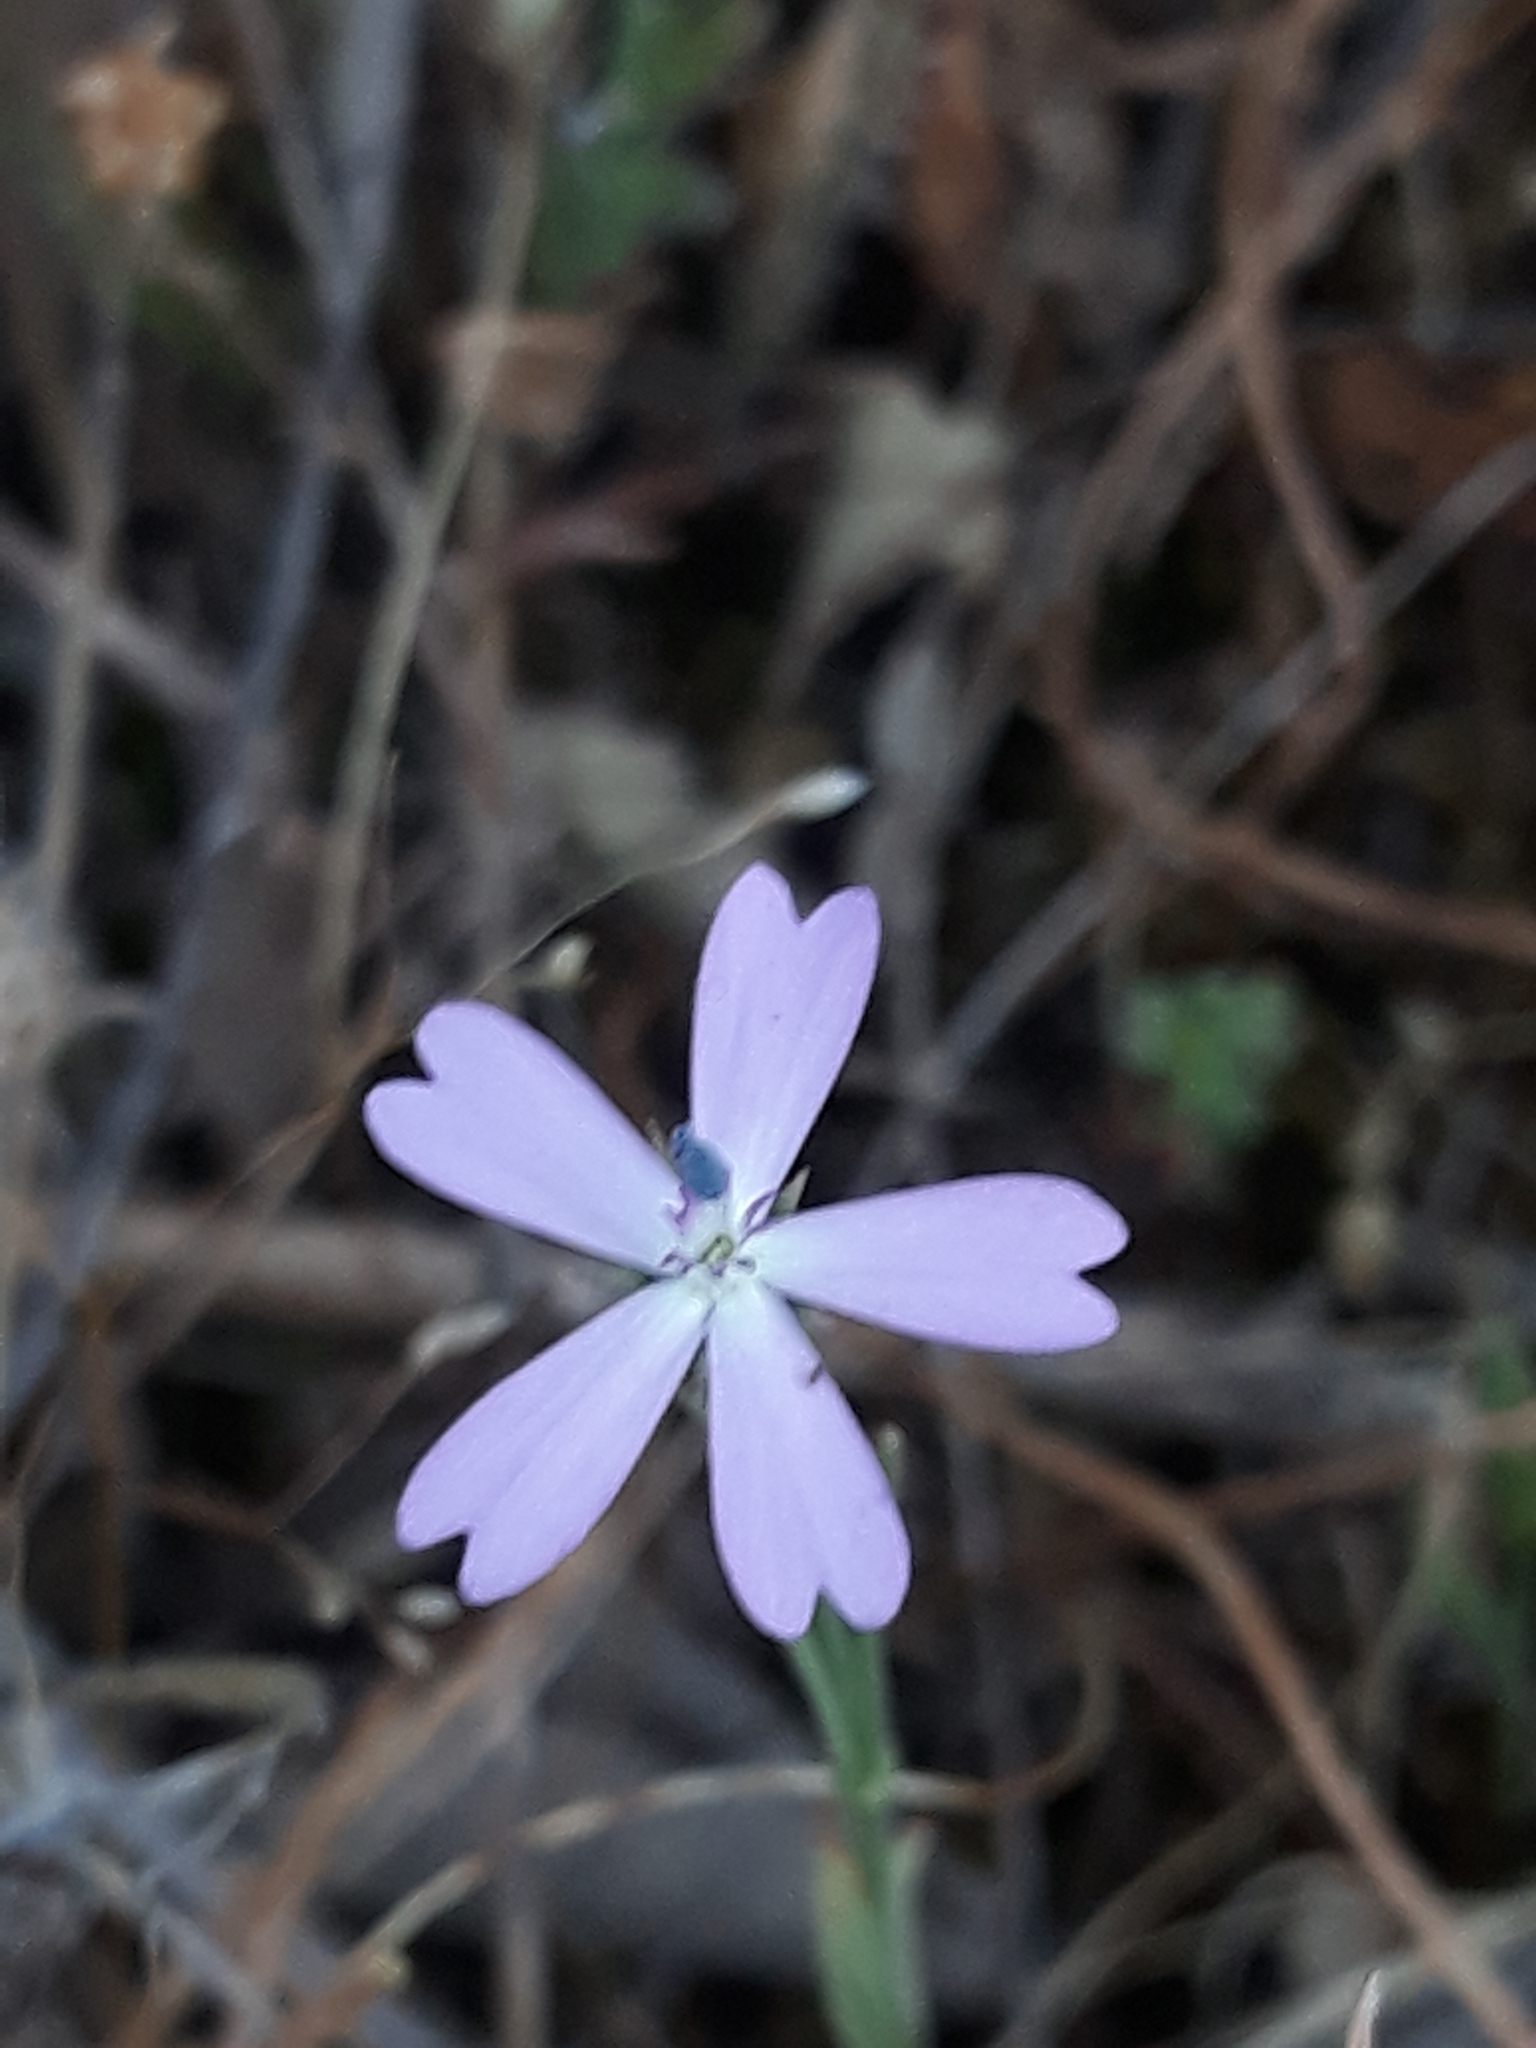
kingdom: Plantae
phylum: Tracheophyta
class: Magnoliopsida
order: Caryophyllales
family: Caryophyllaceae
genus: Eudianthe
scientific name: Eudianthe coeli-rosa
